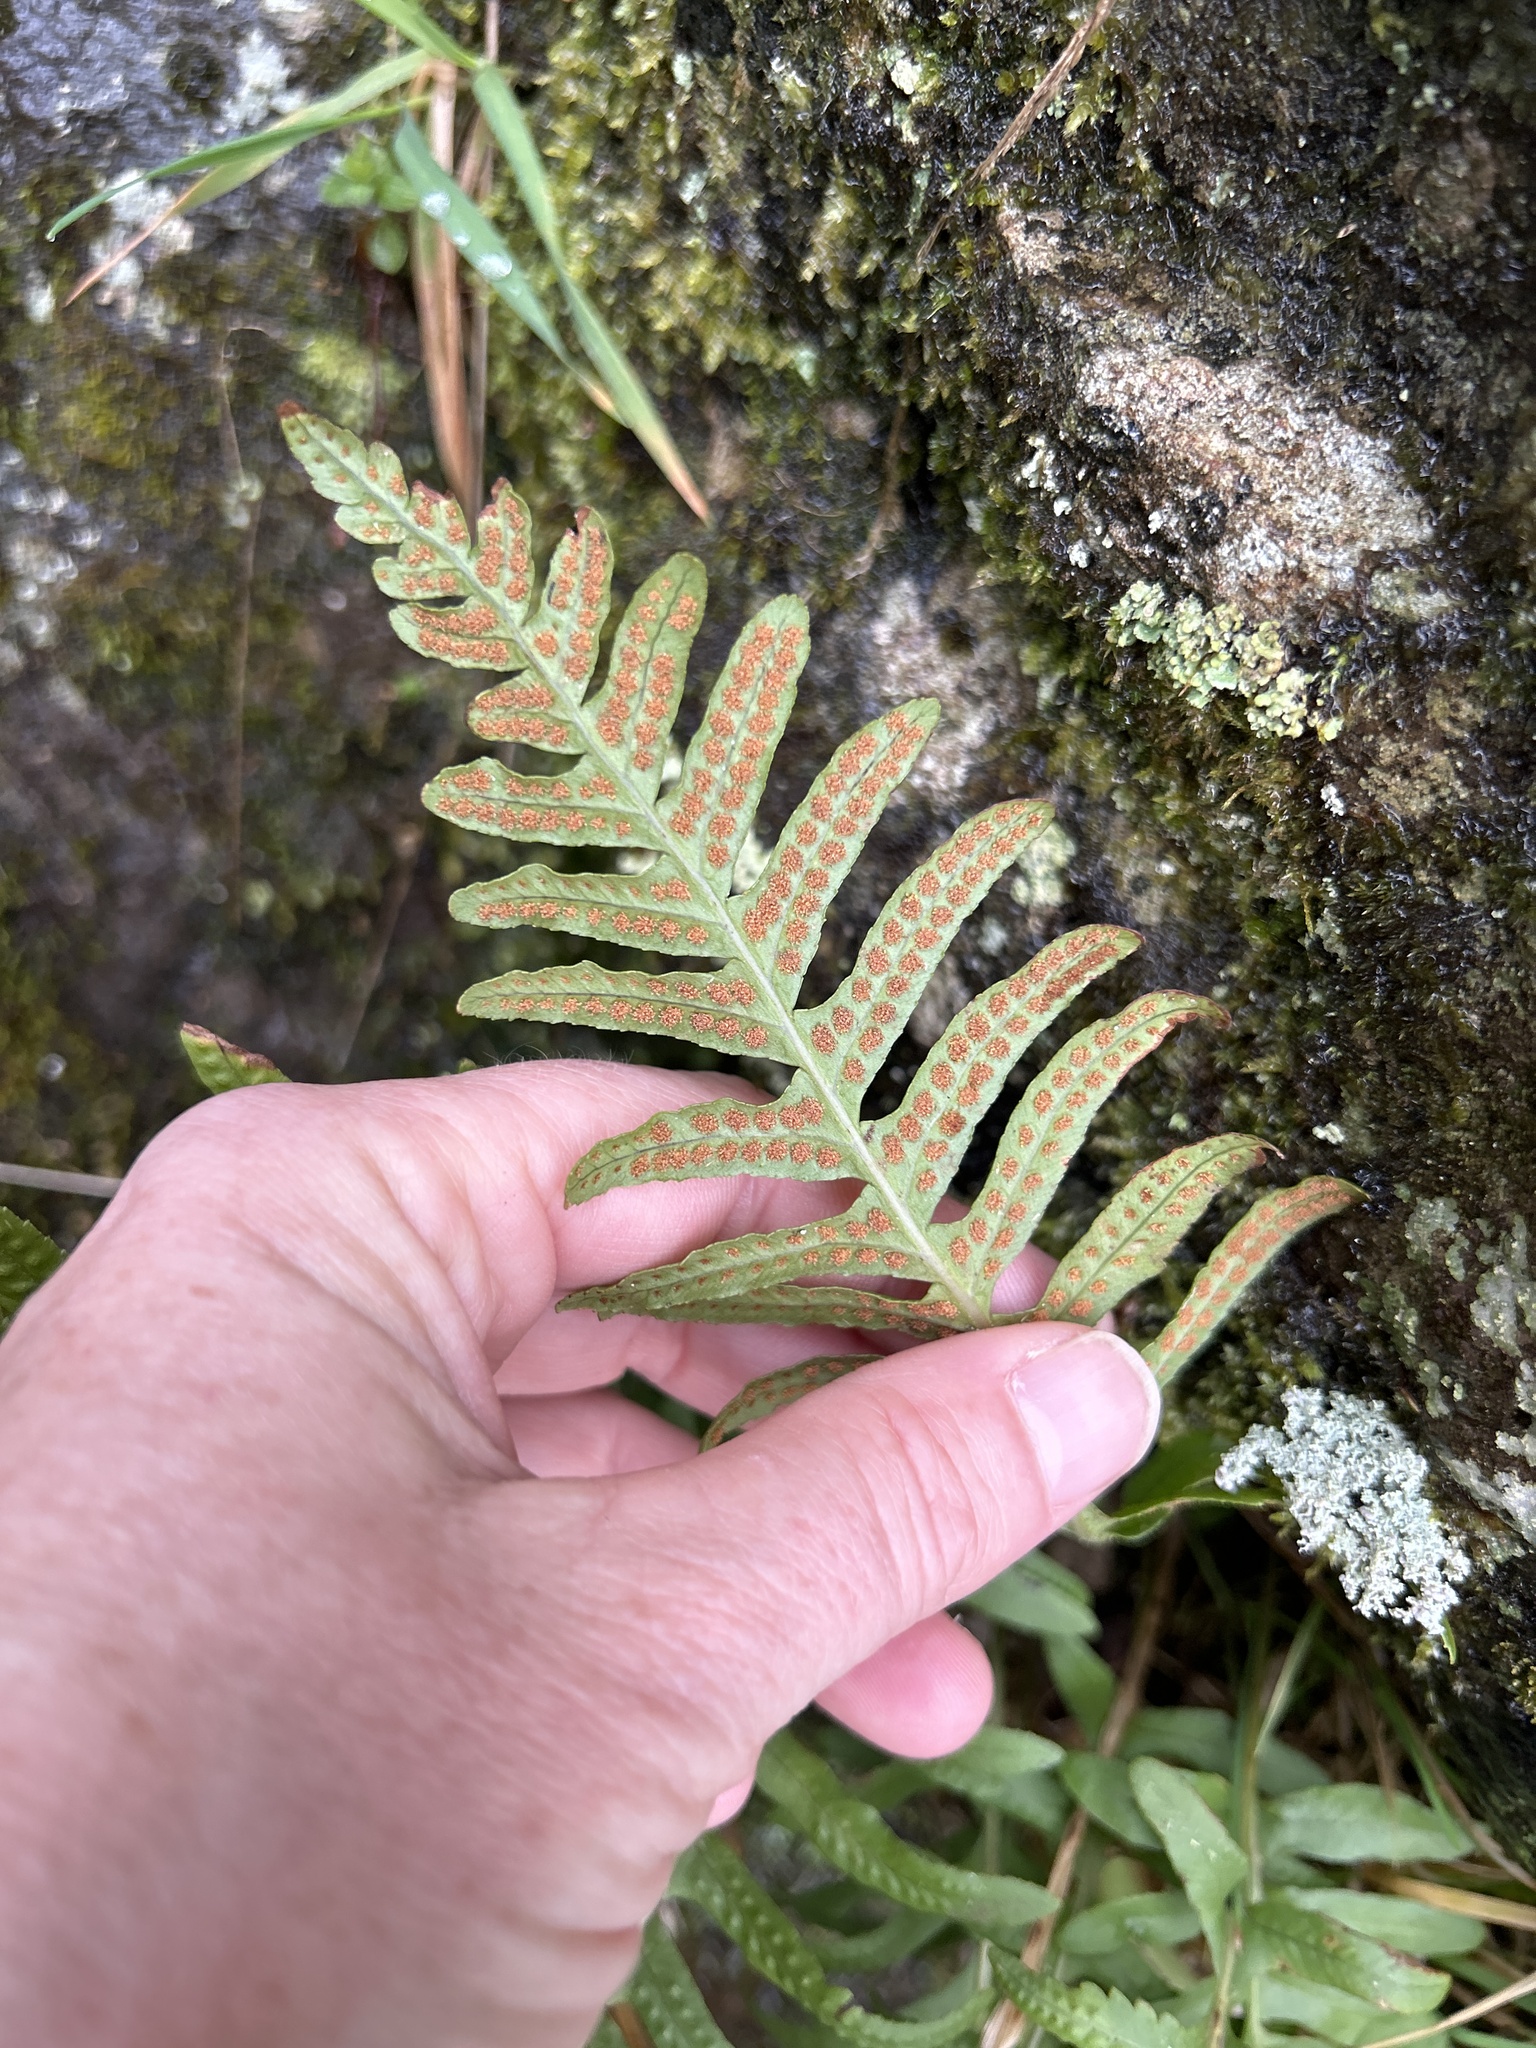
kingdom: Plantae
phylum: Tracheophyta
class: Polypodiopsida
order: Polypodiales
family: Polypodiaceae
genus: Polypodium
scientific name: Polypodium vulgare
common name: Common polypody
